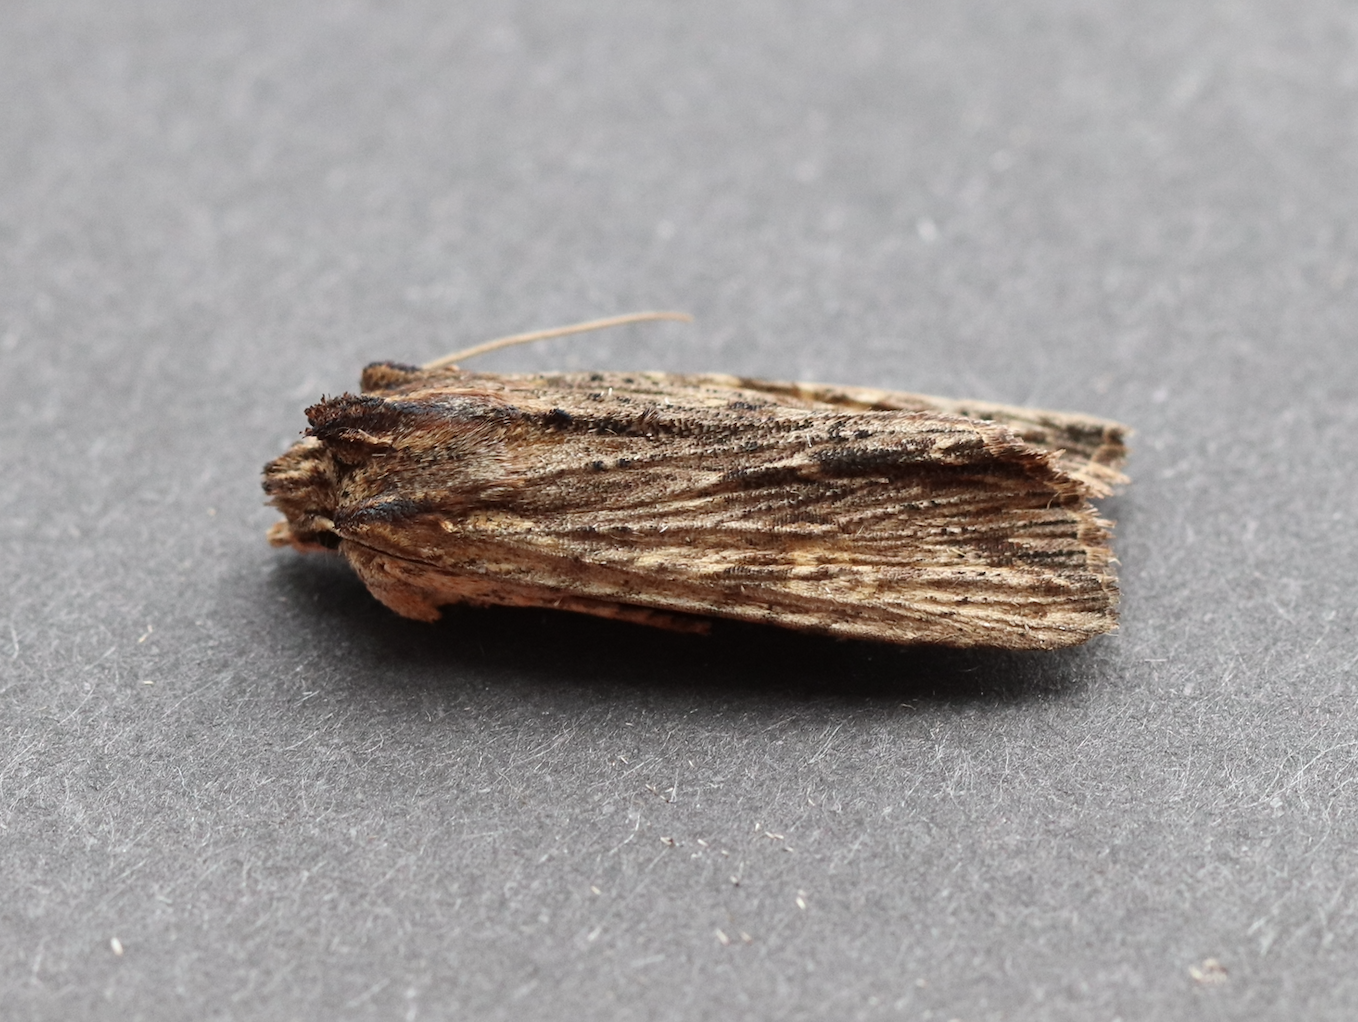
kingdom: Animalia
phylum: Arthropoda
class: Insecta
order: Lepidoptera
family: Noctuidae
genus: Lithophane
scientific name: Lithophane semibrunnea
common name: Tawny pinion
